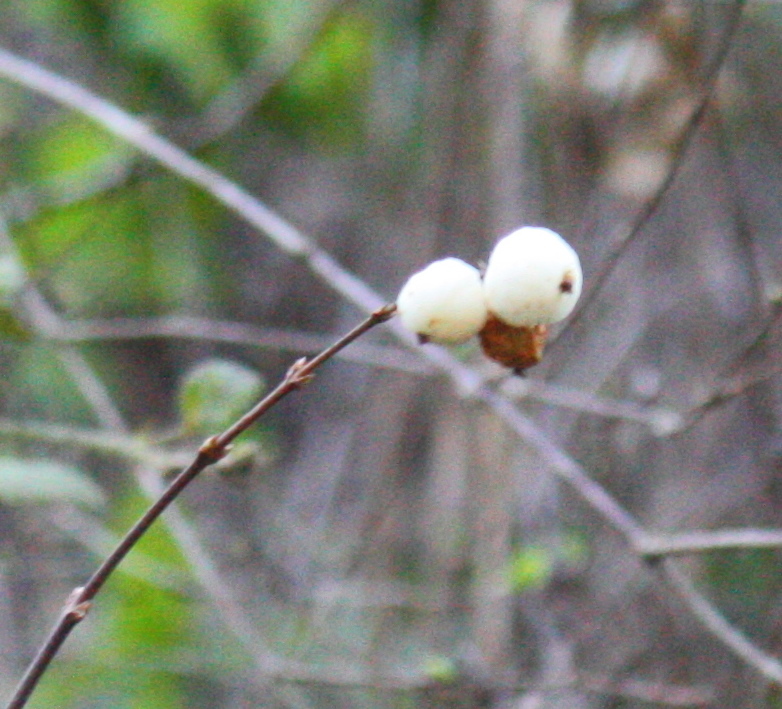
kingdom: Plantae
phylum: Tracheophyta
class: Magnoliopsida
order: Dipsacales
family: Caprifoliaceae
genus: Symphoricarpos
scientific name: Symphoricarpos albus
